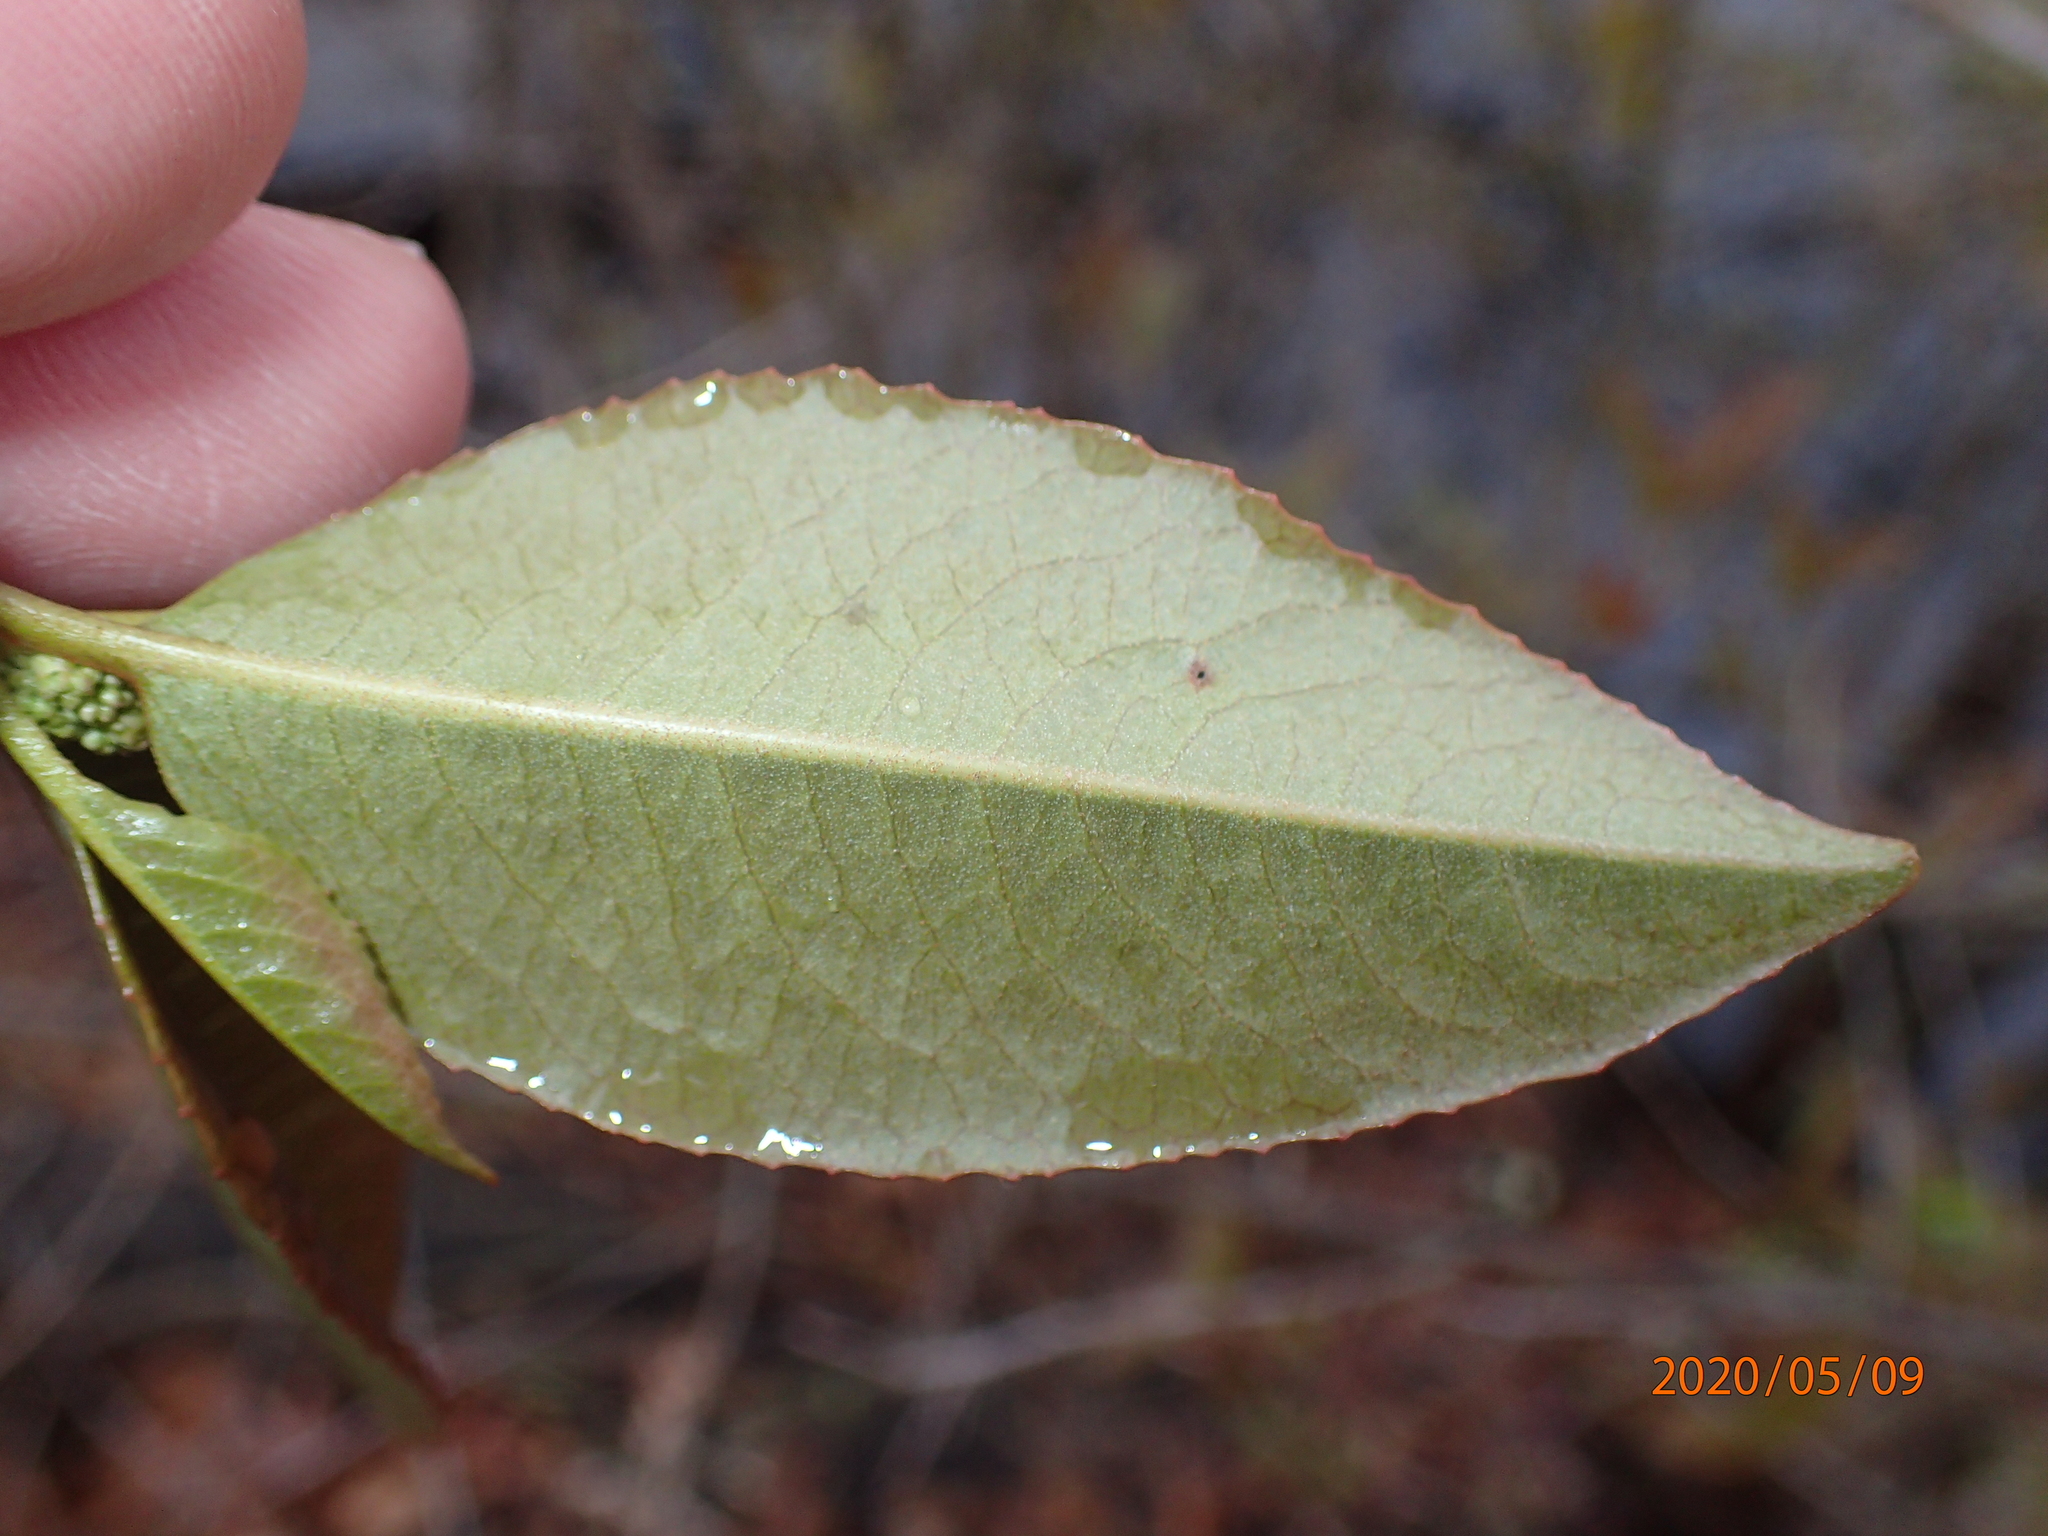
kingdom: Plantae
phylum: Tracheophyta
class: Magnoliopsida
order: Dipsacales
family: Viburnaceae
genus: Viburnum
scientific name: Viburnum cassinoides
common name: Swamp haw
